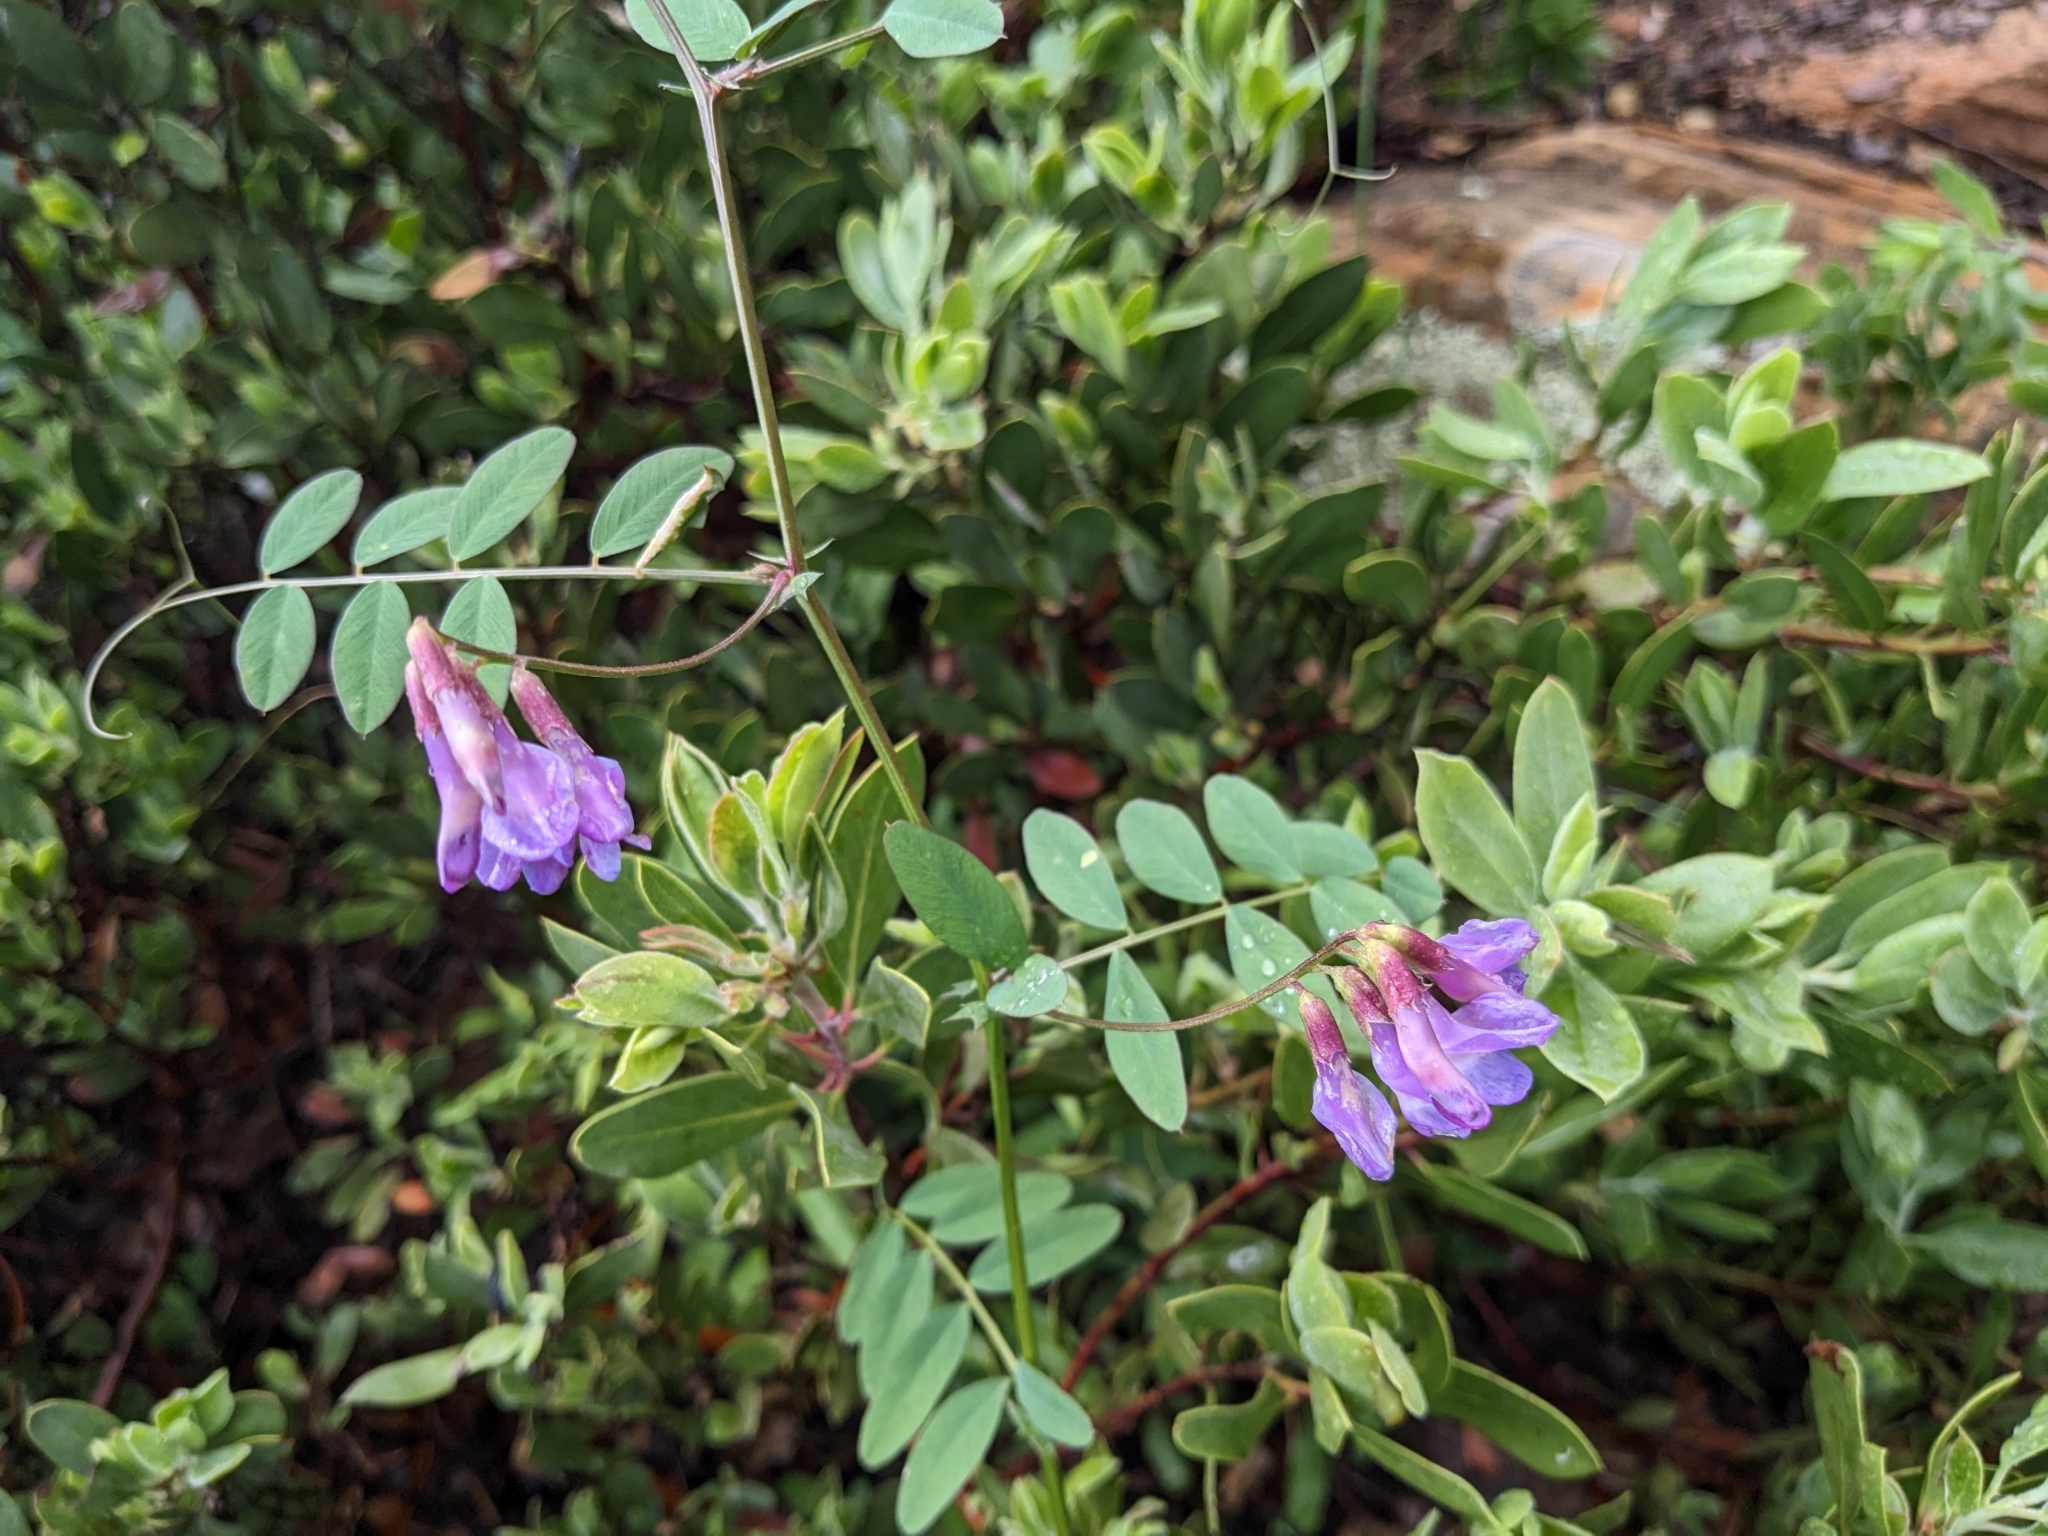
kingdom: Plantae
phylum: Tracheophyta
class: Magnoliopsida
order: Fabales
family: Fabaceae
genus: Vicia
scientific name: Vicia americana
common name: American vetch
